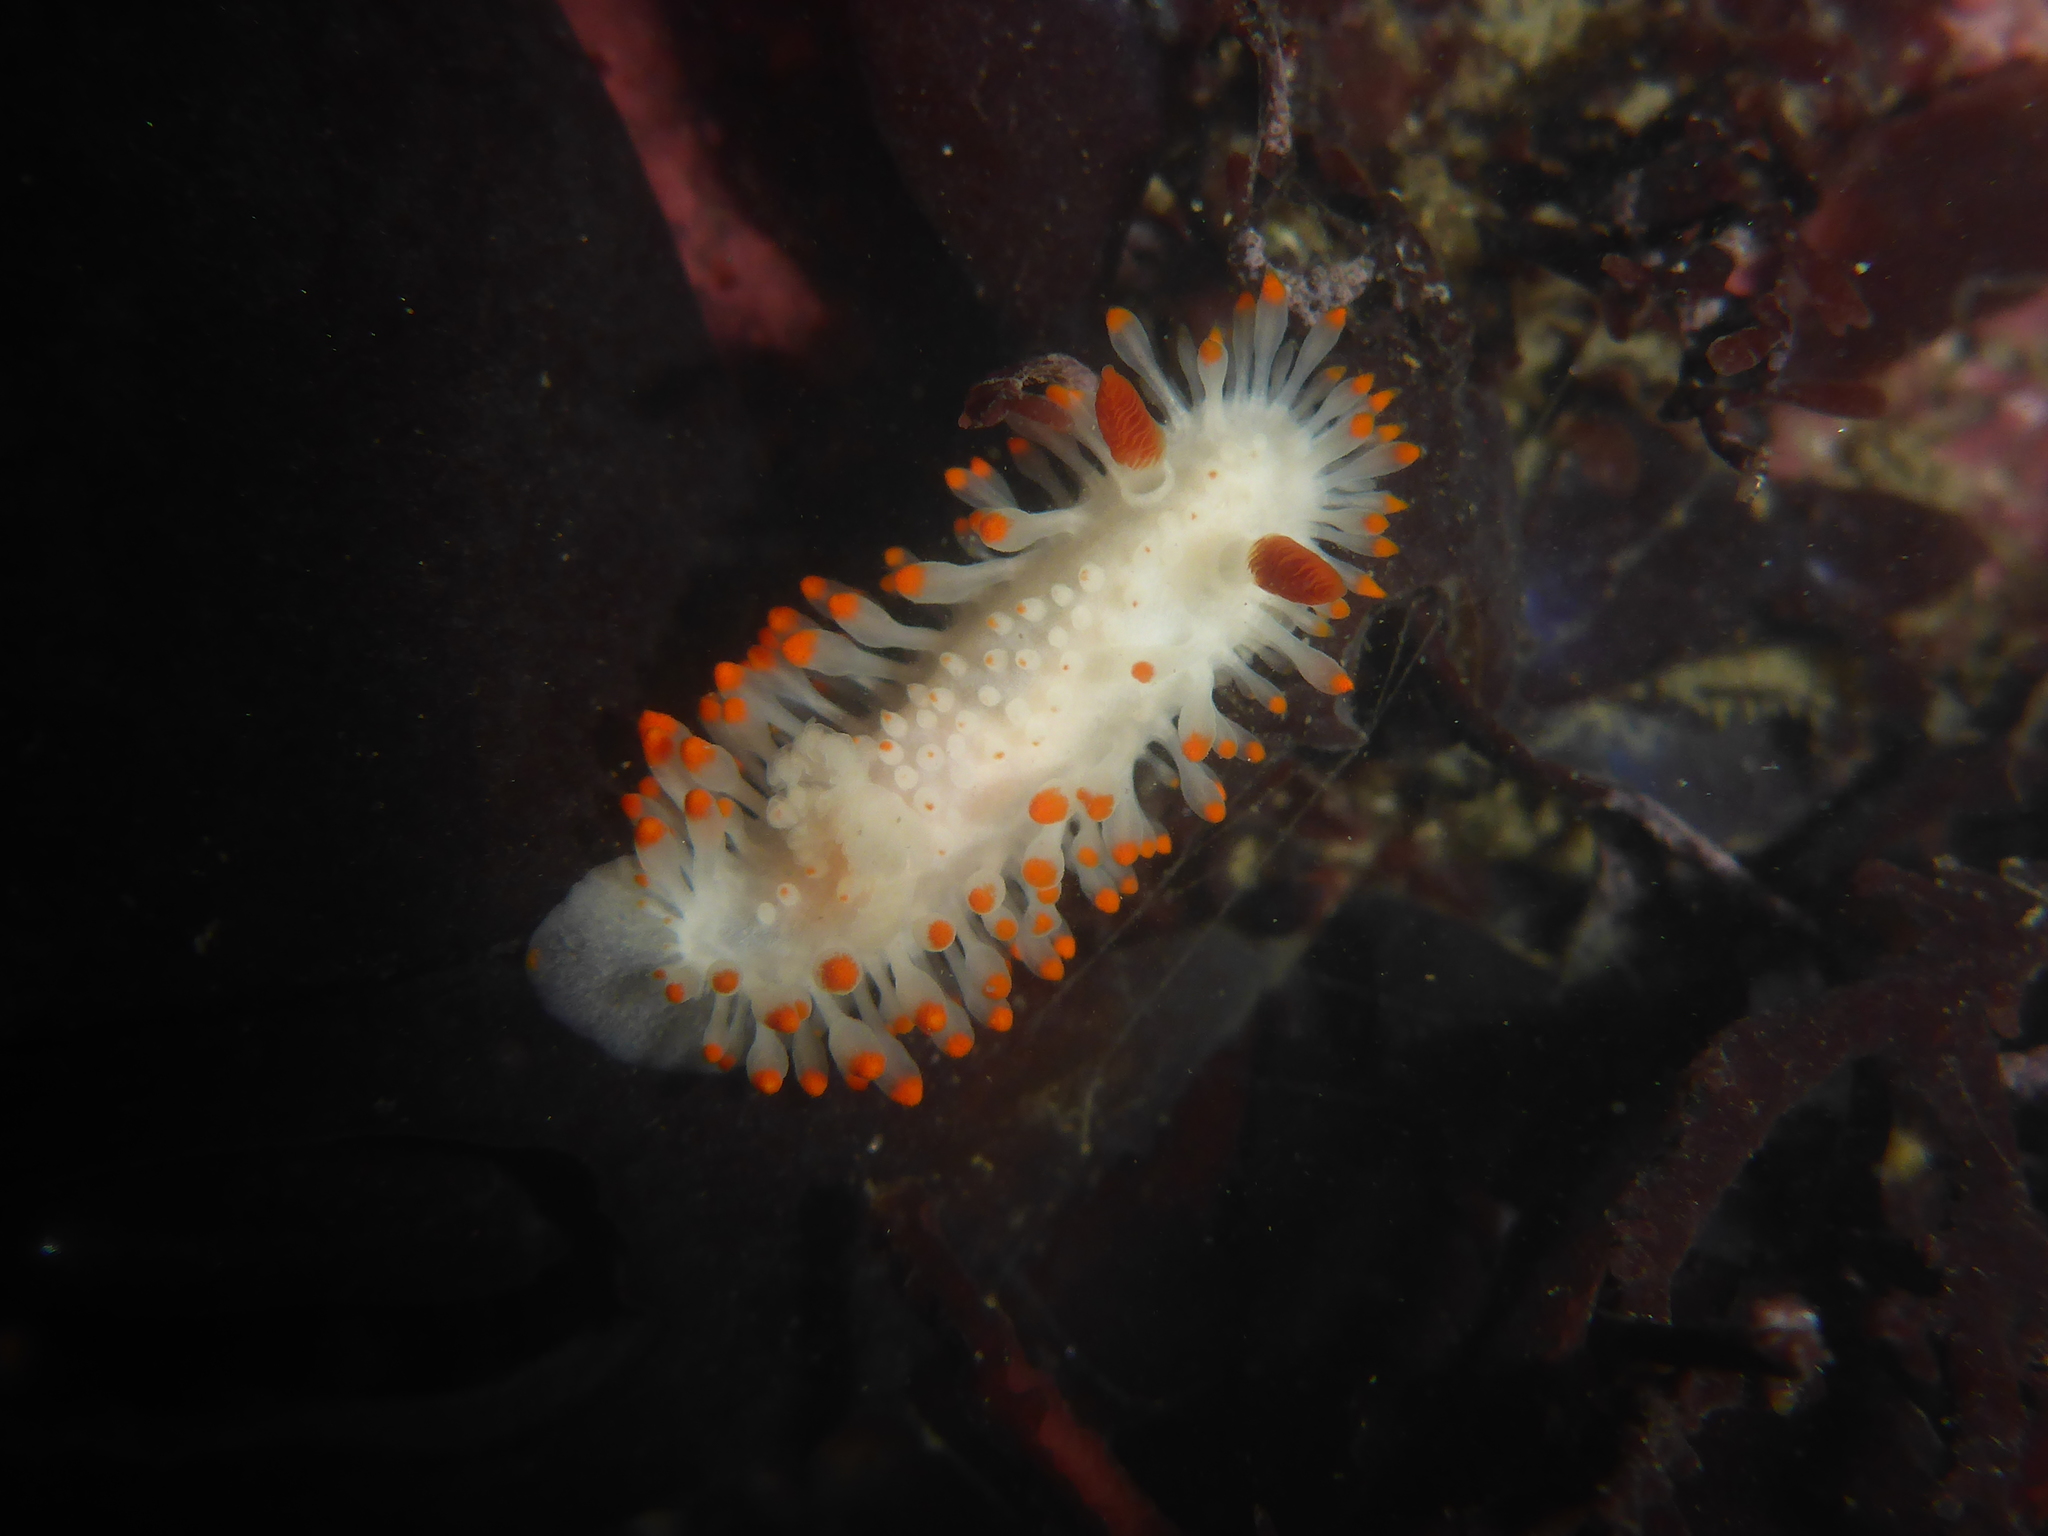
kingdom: Animalia
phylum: Mollusca
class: Gastropoda
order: Nudibranchia
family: Polyceridae
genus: Limacia
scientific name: Limacia cockerelli
